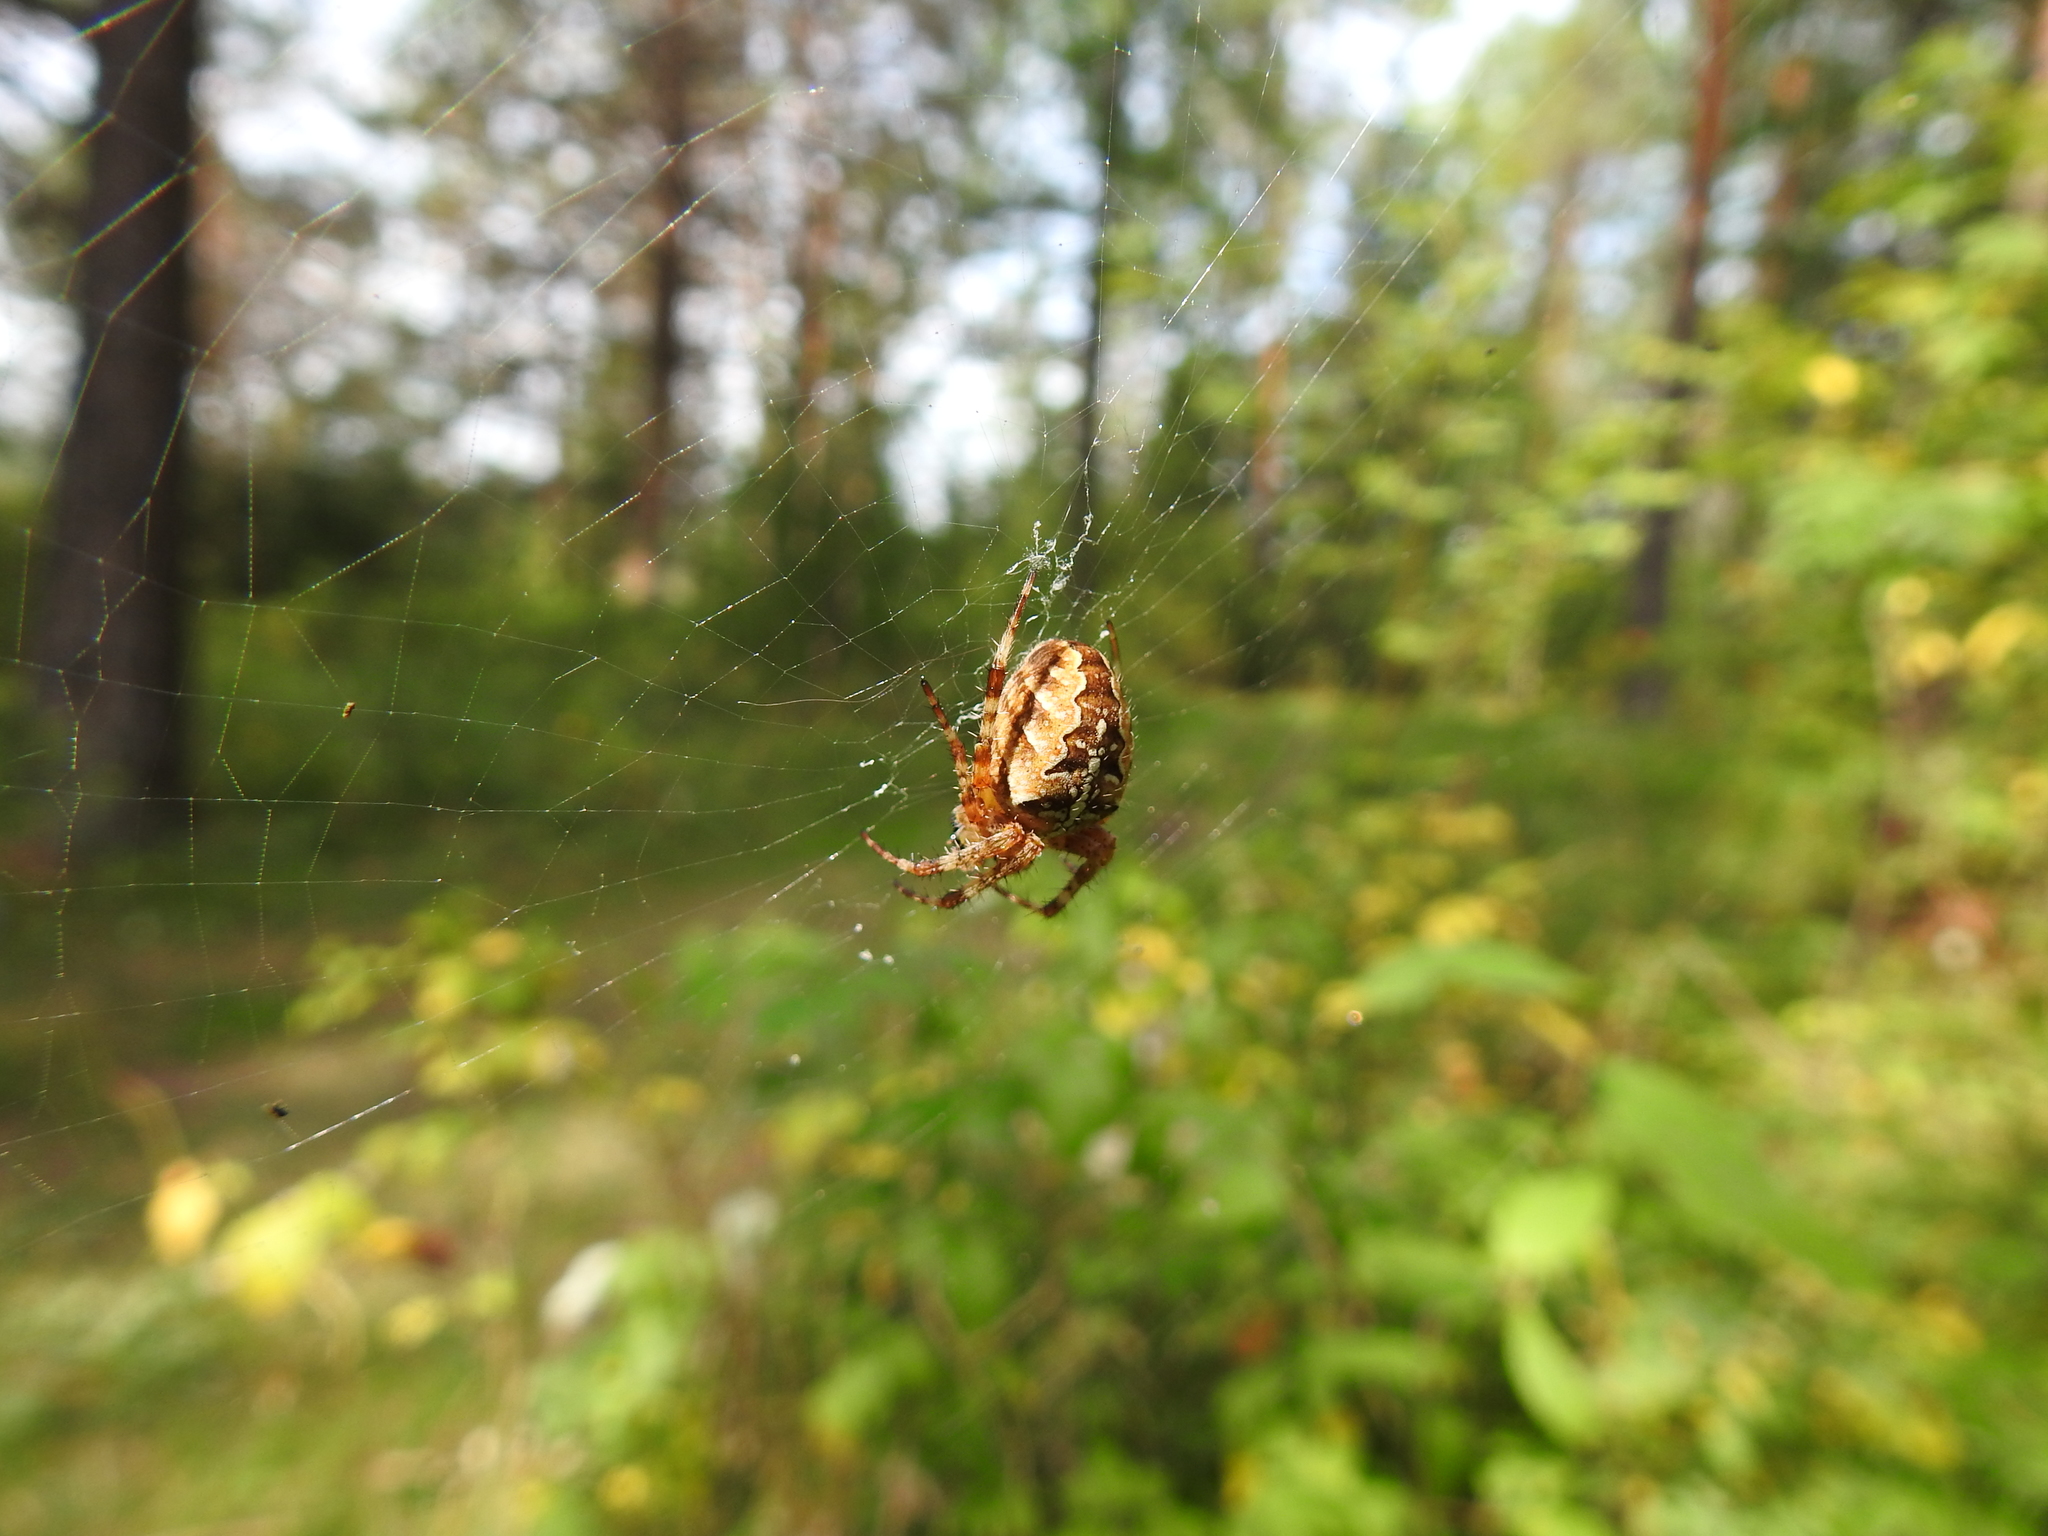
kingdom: Animalia
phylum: Arthropoda
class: Arachnida
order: Araneae
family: Araneidae
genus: Araneus
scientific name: Araneus diadematus
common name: Cross orbweaver
